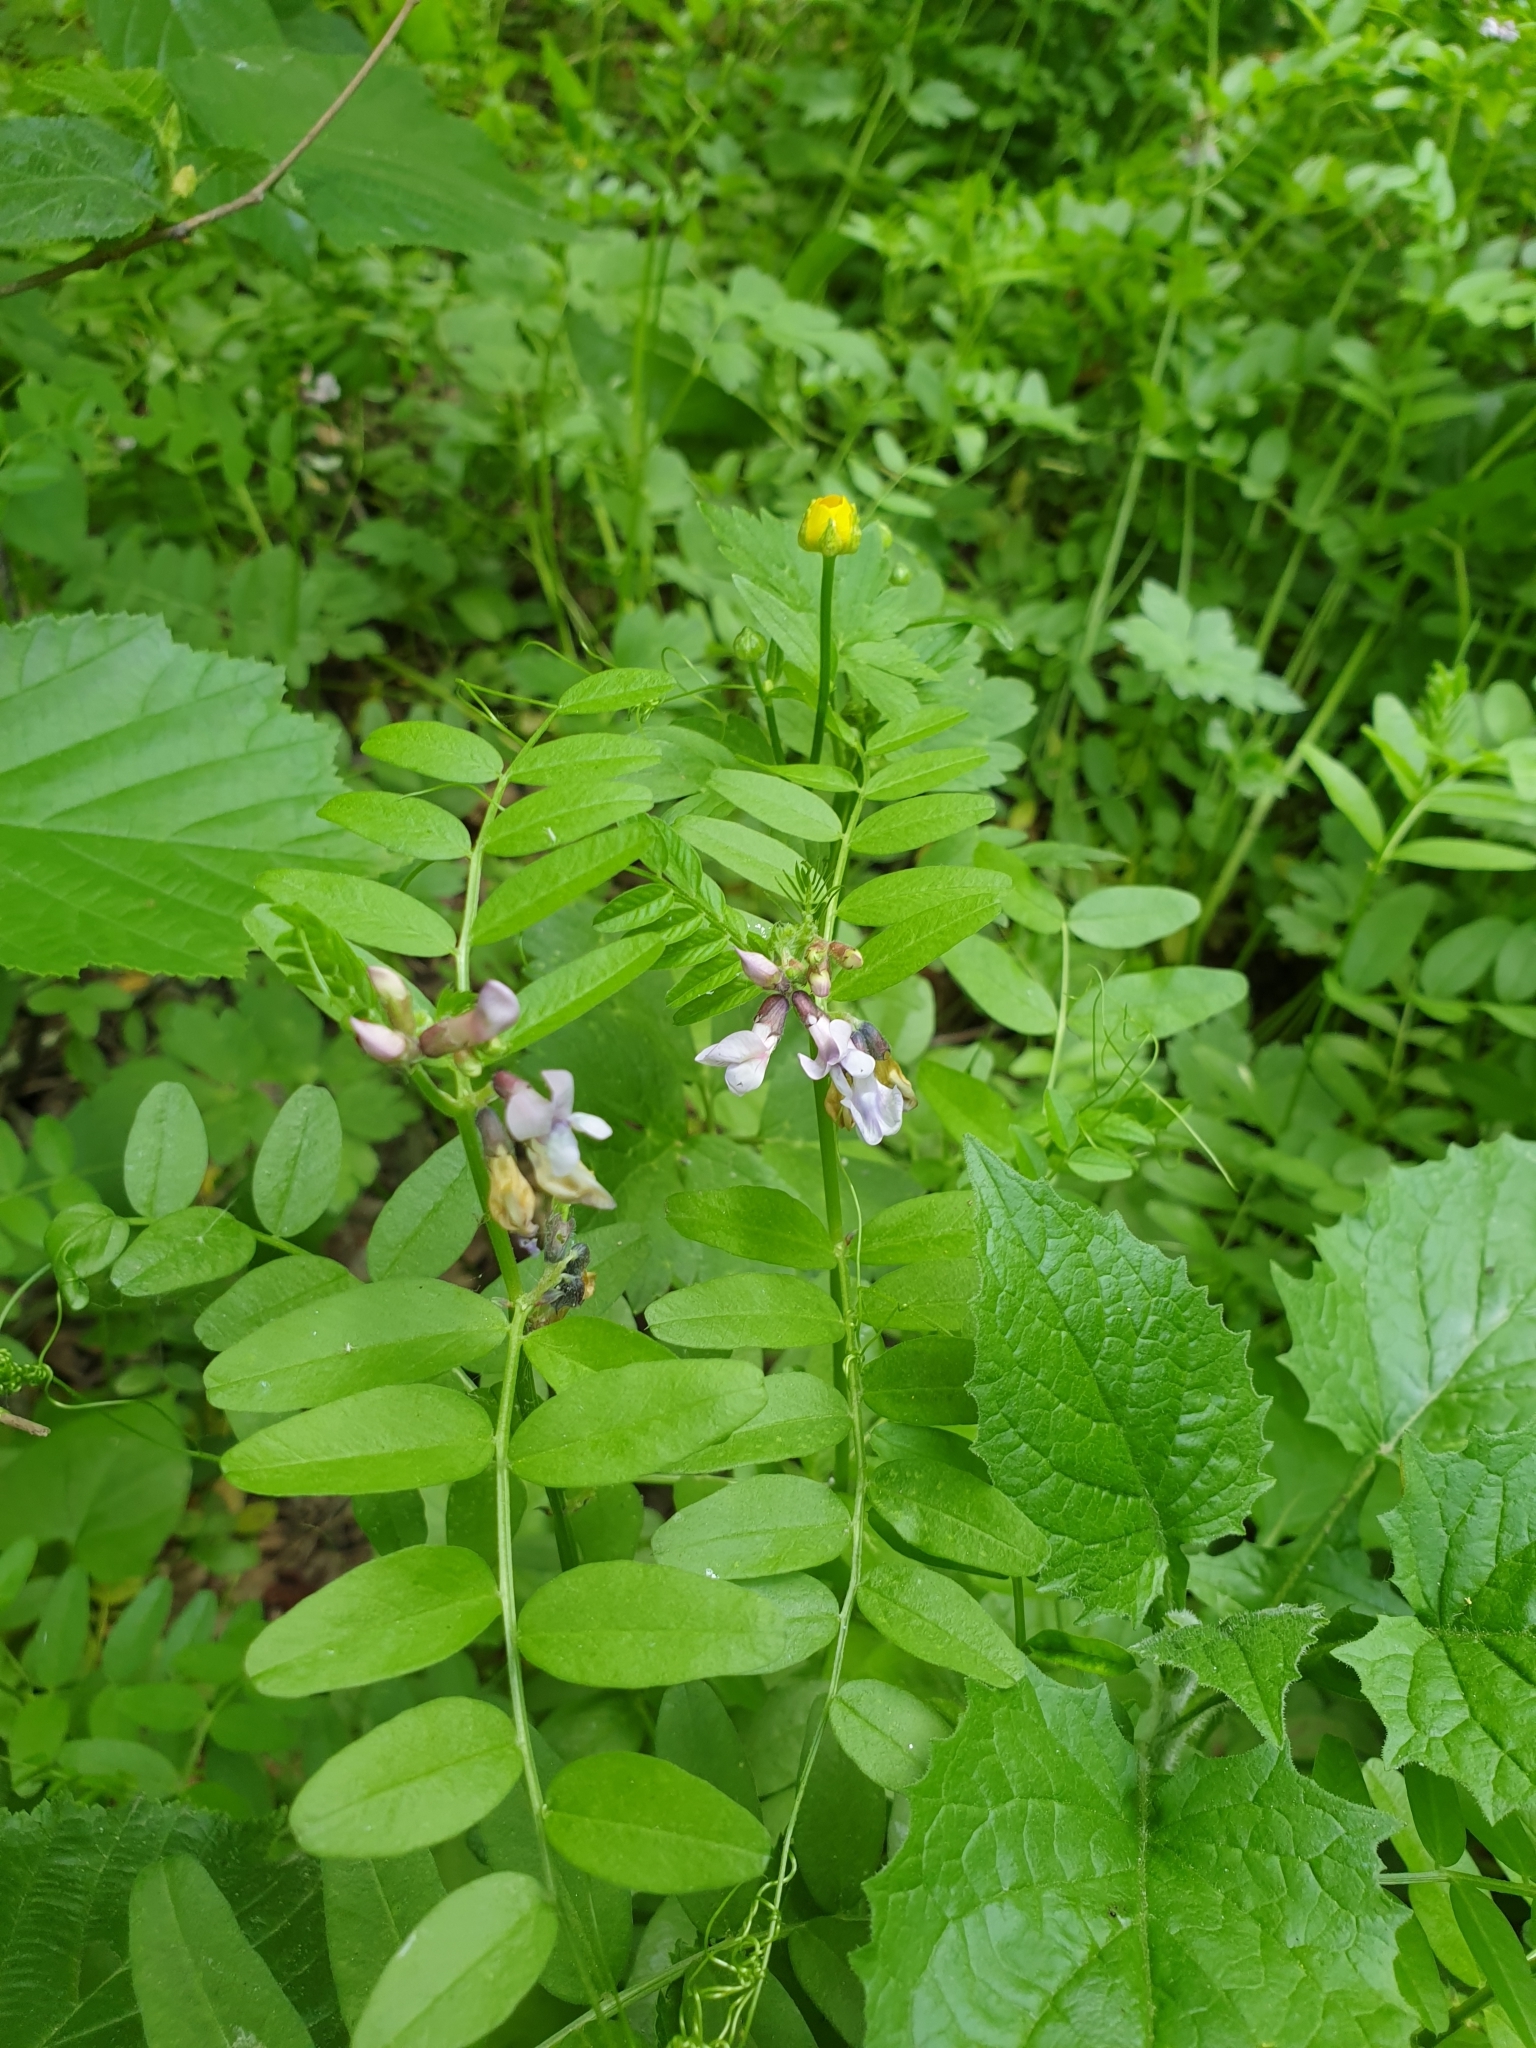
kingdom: Plantae
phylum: Tracheophyta
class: Magnoliopsida
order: Fabales
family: Fabaceae
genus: Vicia
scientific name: Vicia sepium
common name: Bush vetch
